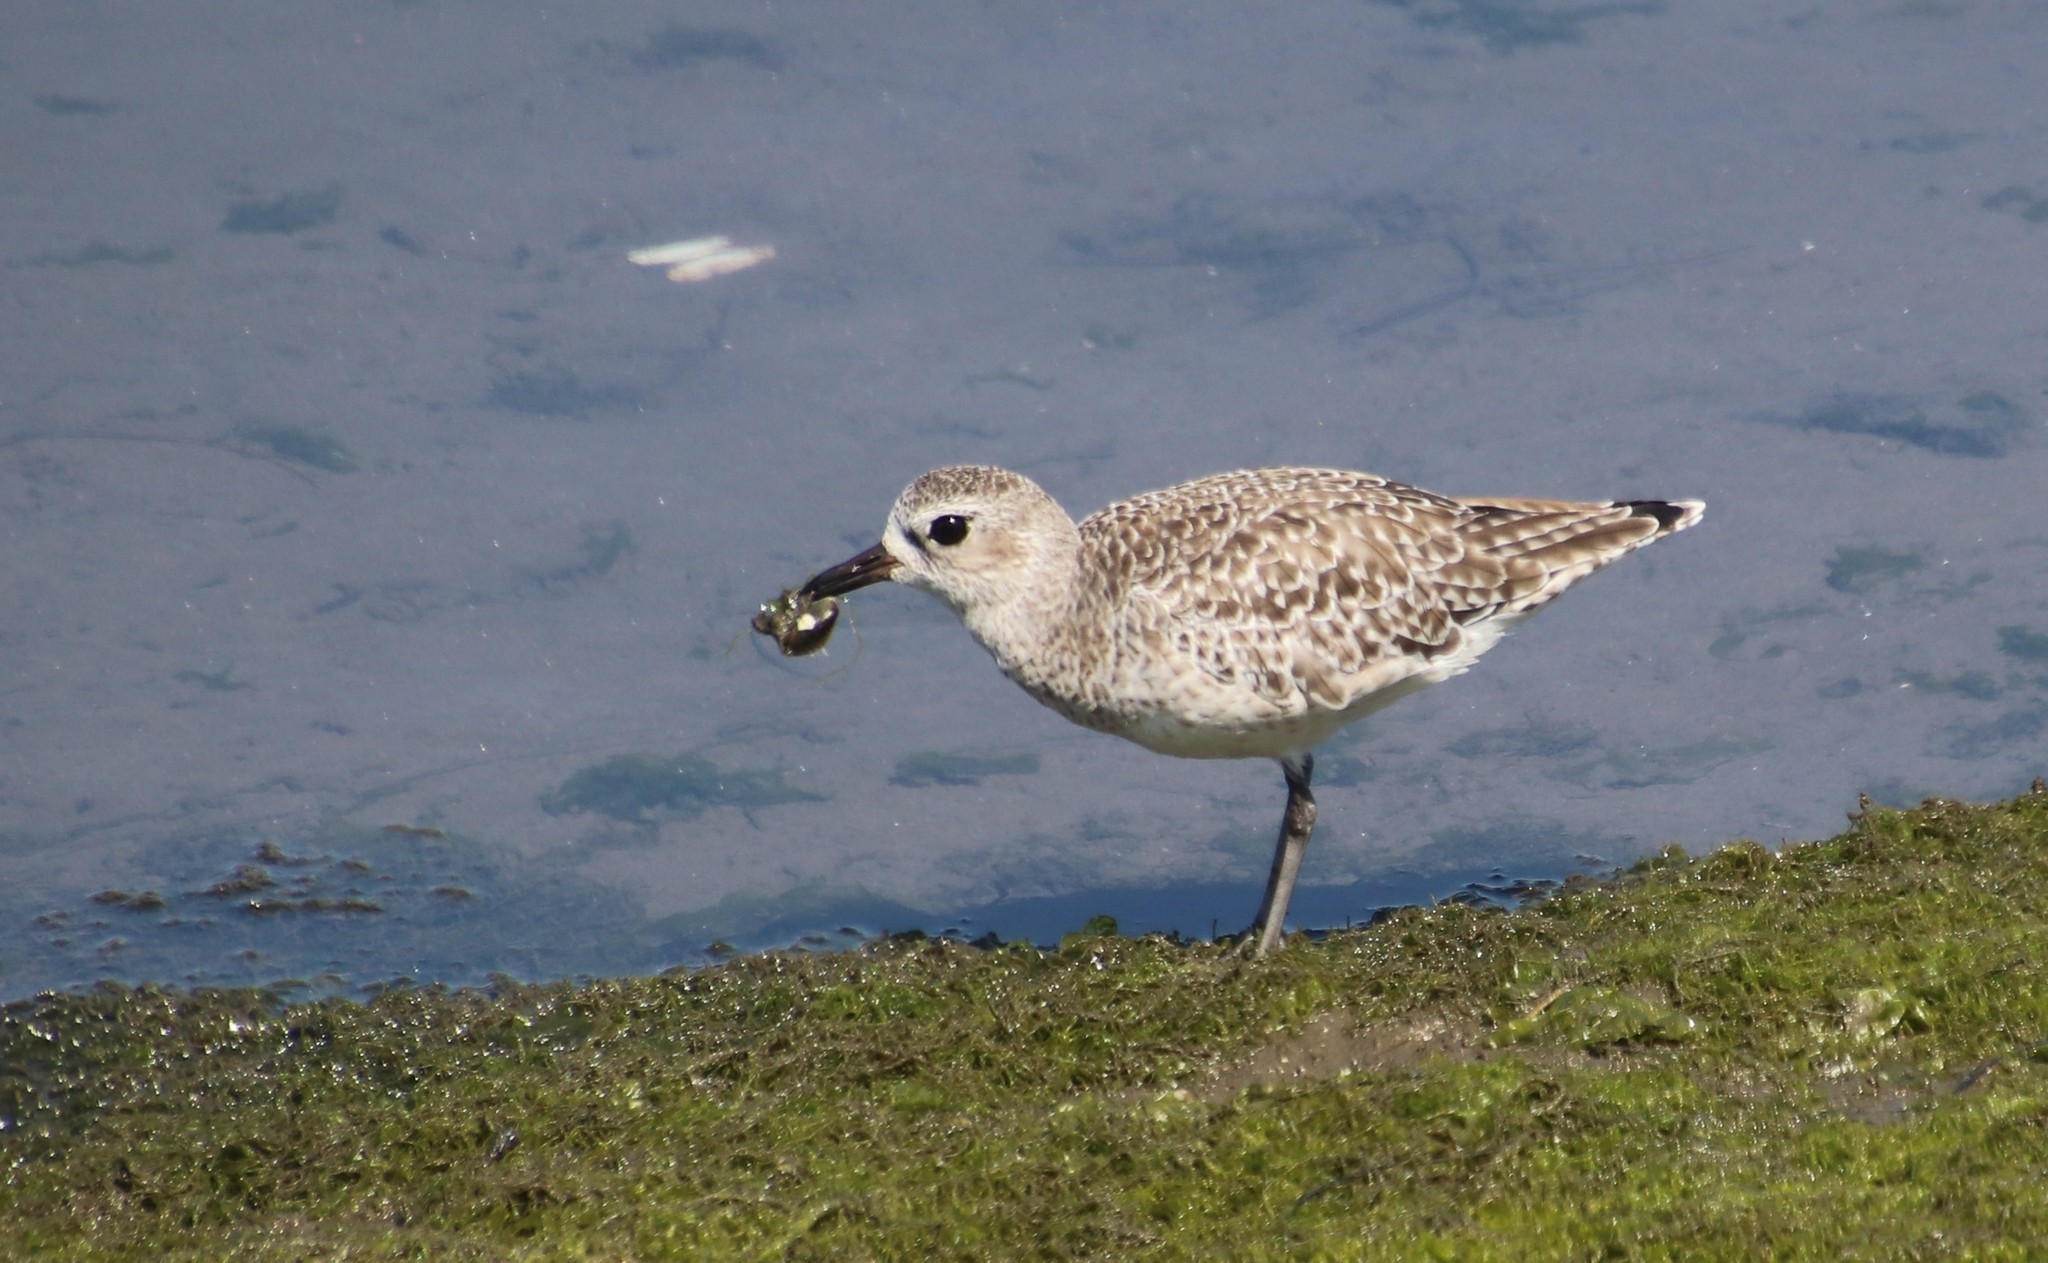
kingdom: Animalia
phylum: Chordata
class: Aves
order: Charadriiformes
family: Charadriidae
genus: Pluvialis
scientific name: Pluvialis squatarola
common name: Grey plover
